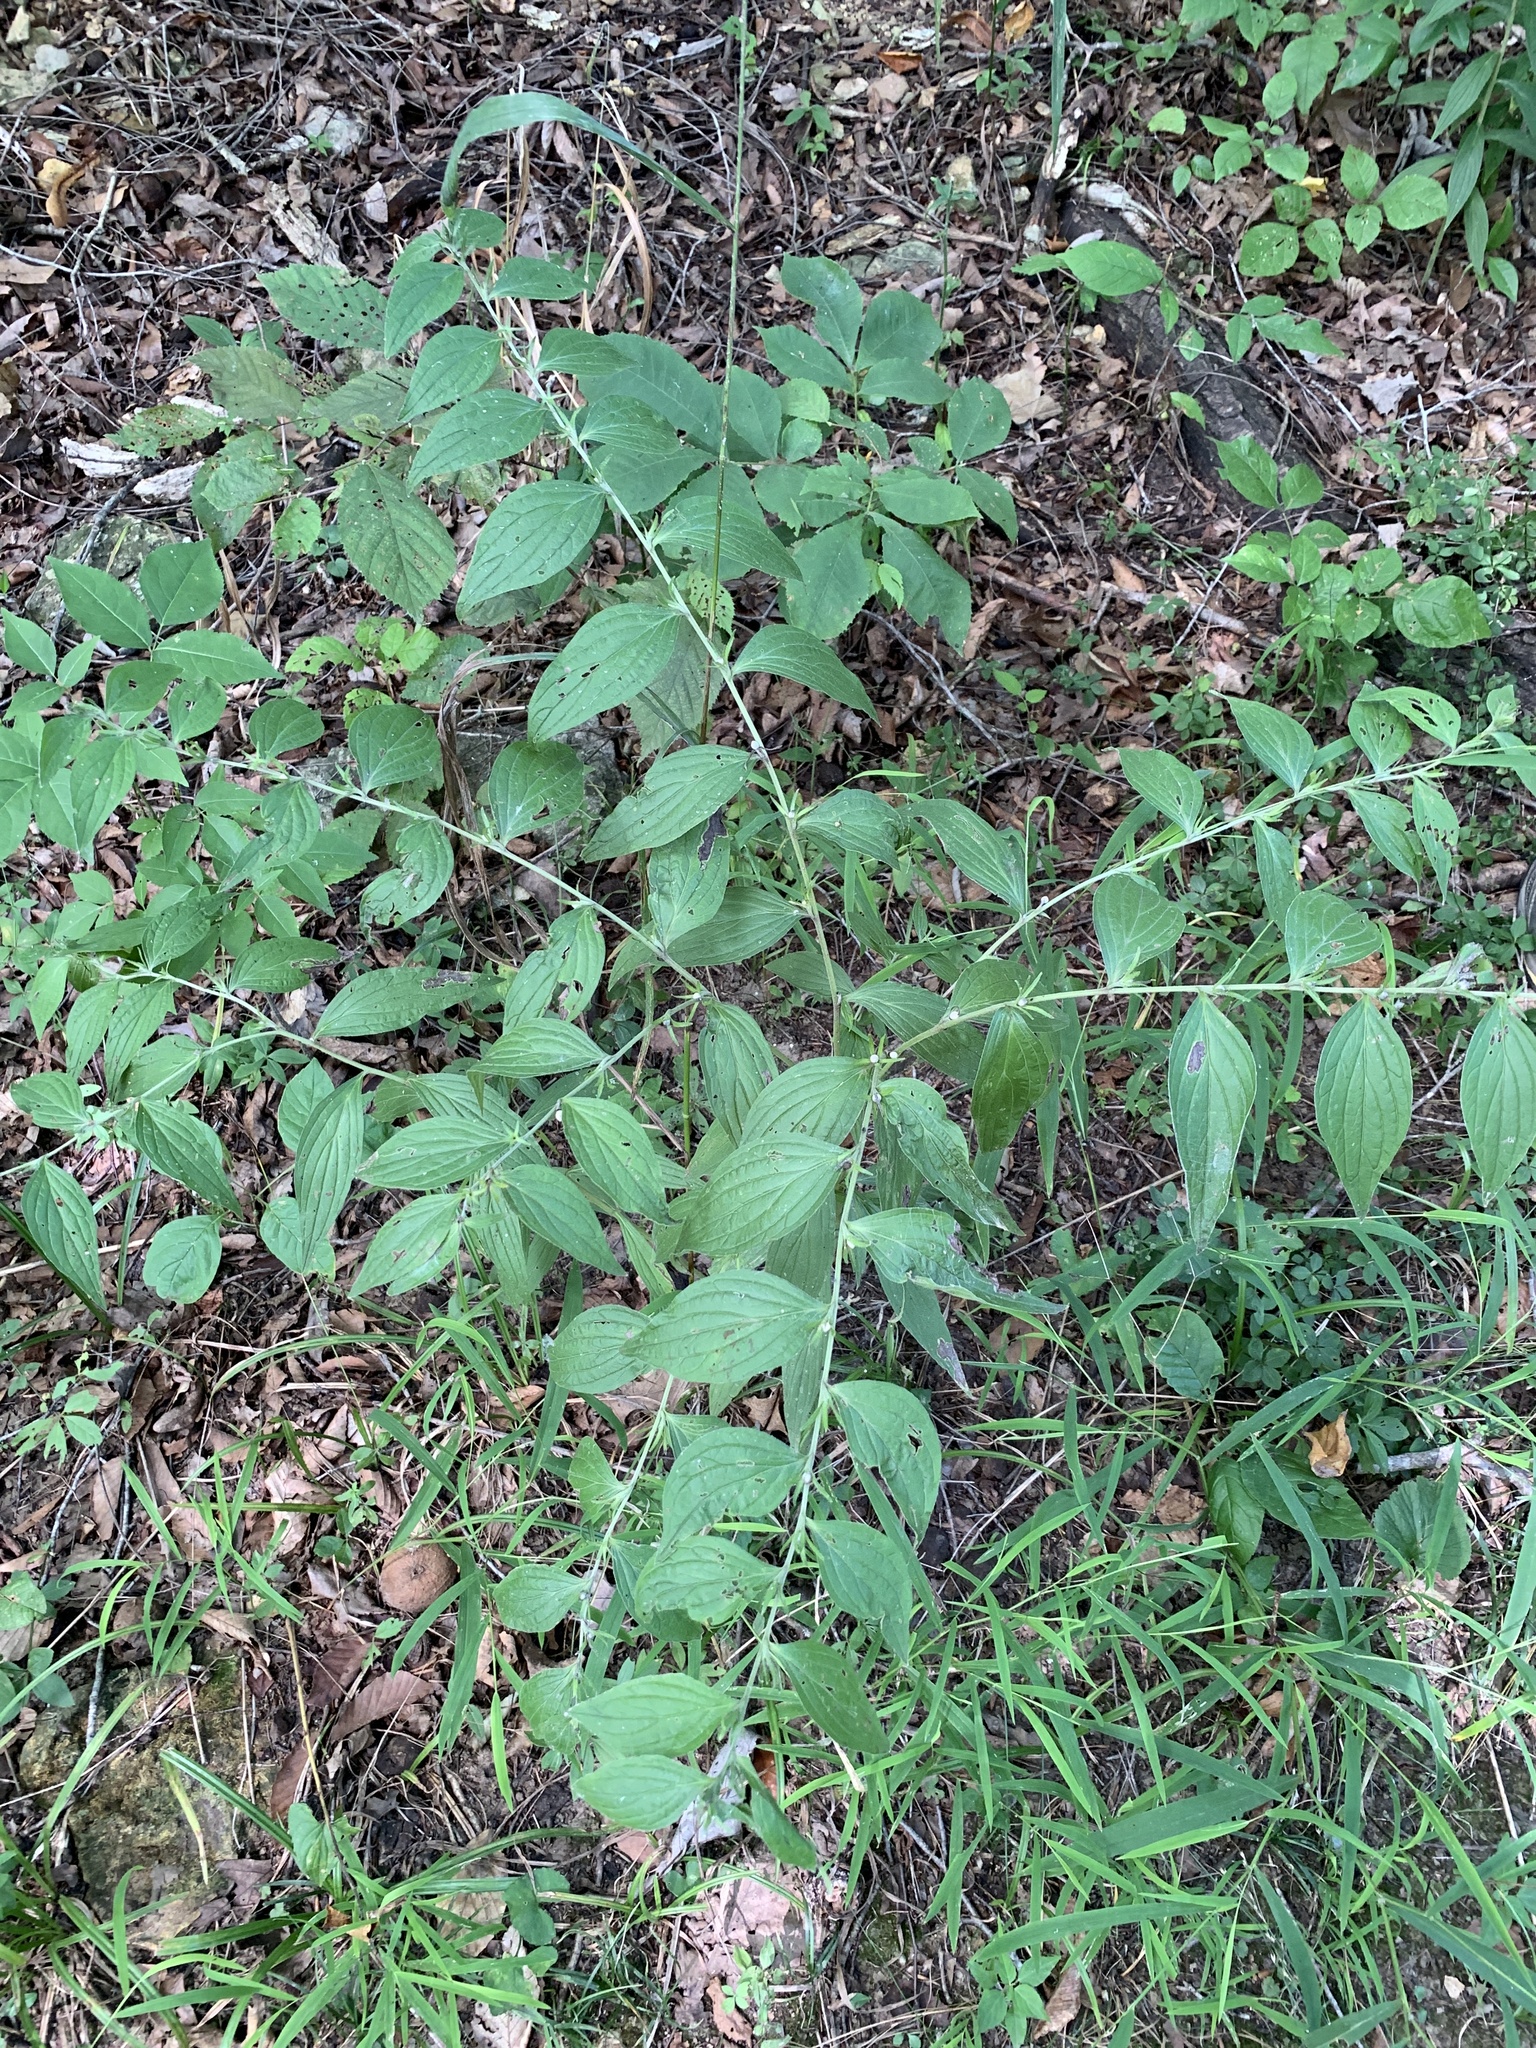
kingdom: Plantae
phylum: Tracheophyta
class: Magnoliopsida
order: Boraginales
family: Boraginaceae
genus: Lithospermum
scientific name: Lithospermum latifolium
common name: American gromwell
